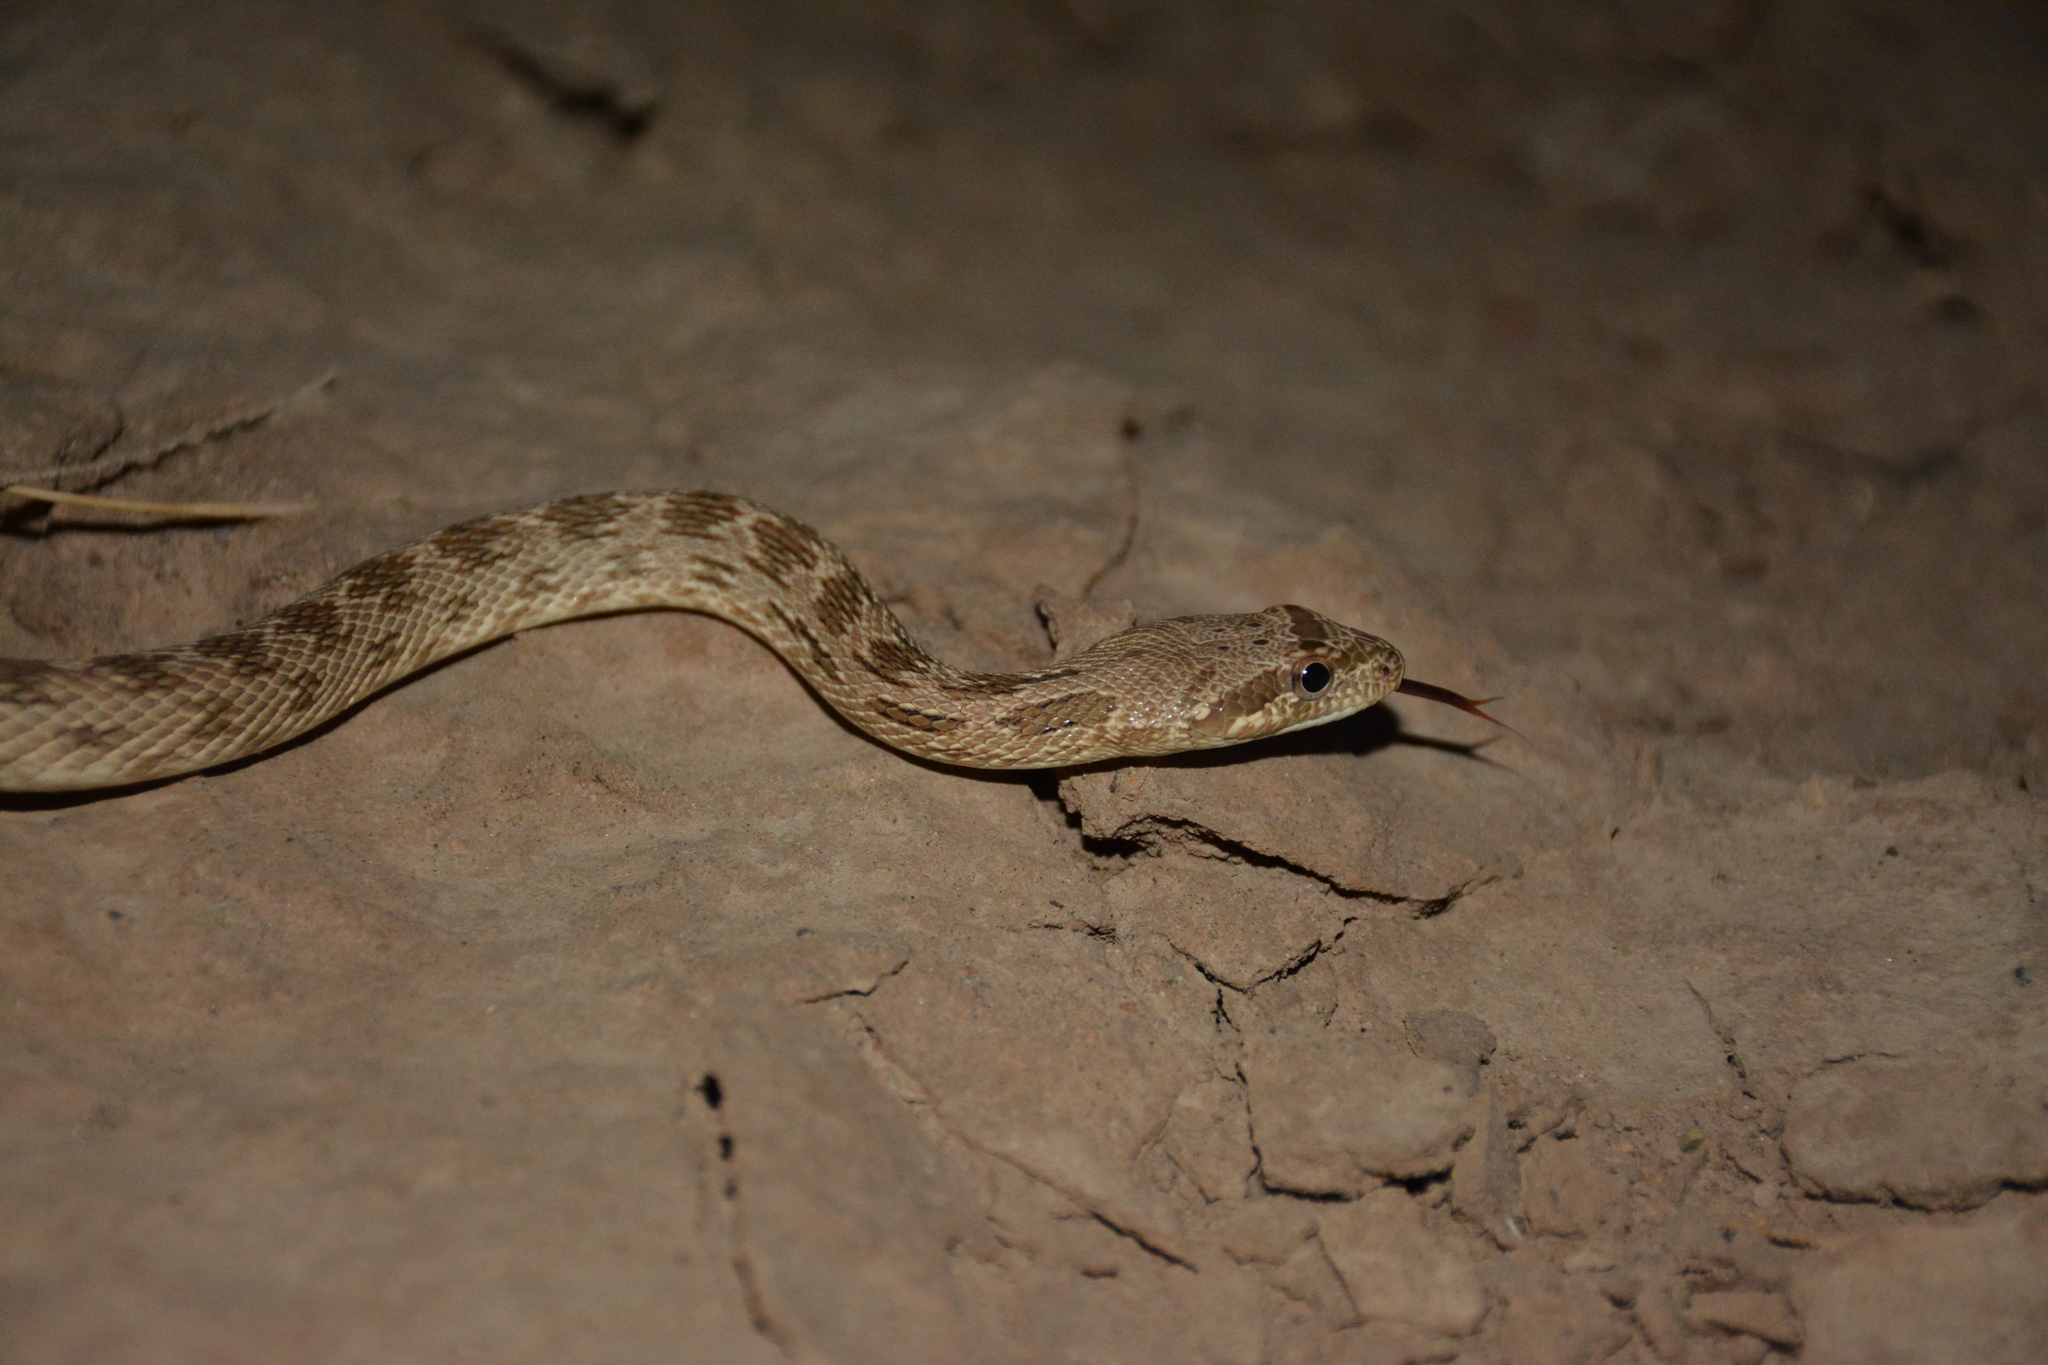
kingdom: Animalia
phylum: Chordata
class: Squamata
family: Colubridae
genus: Spalerosophis
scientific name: Spalerosophis diadema
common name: Diadem snake
